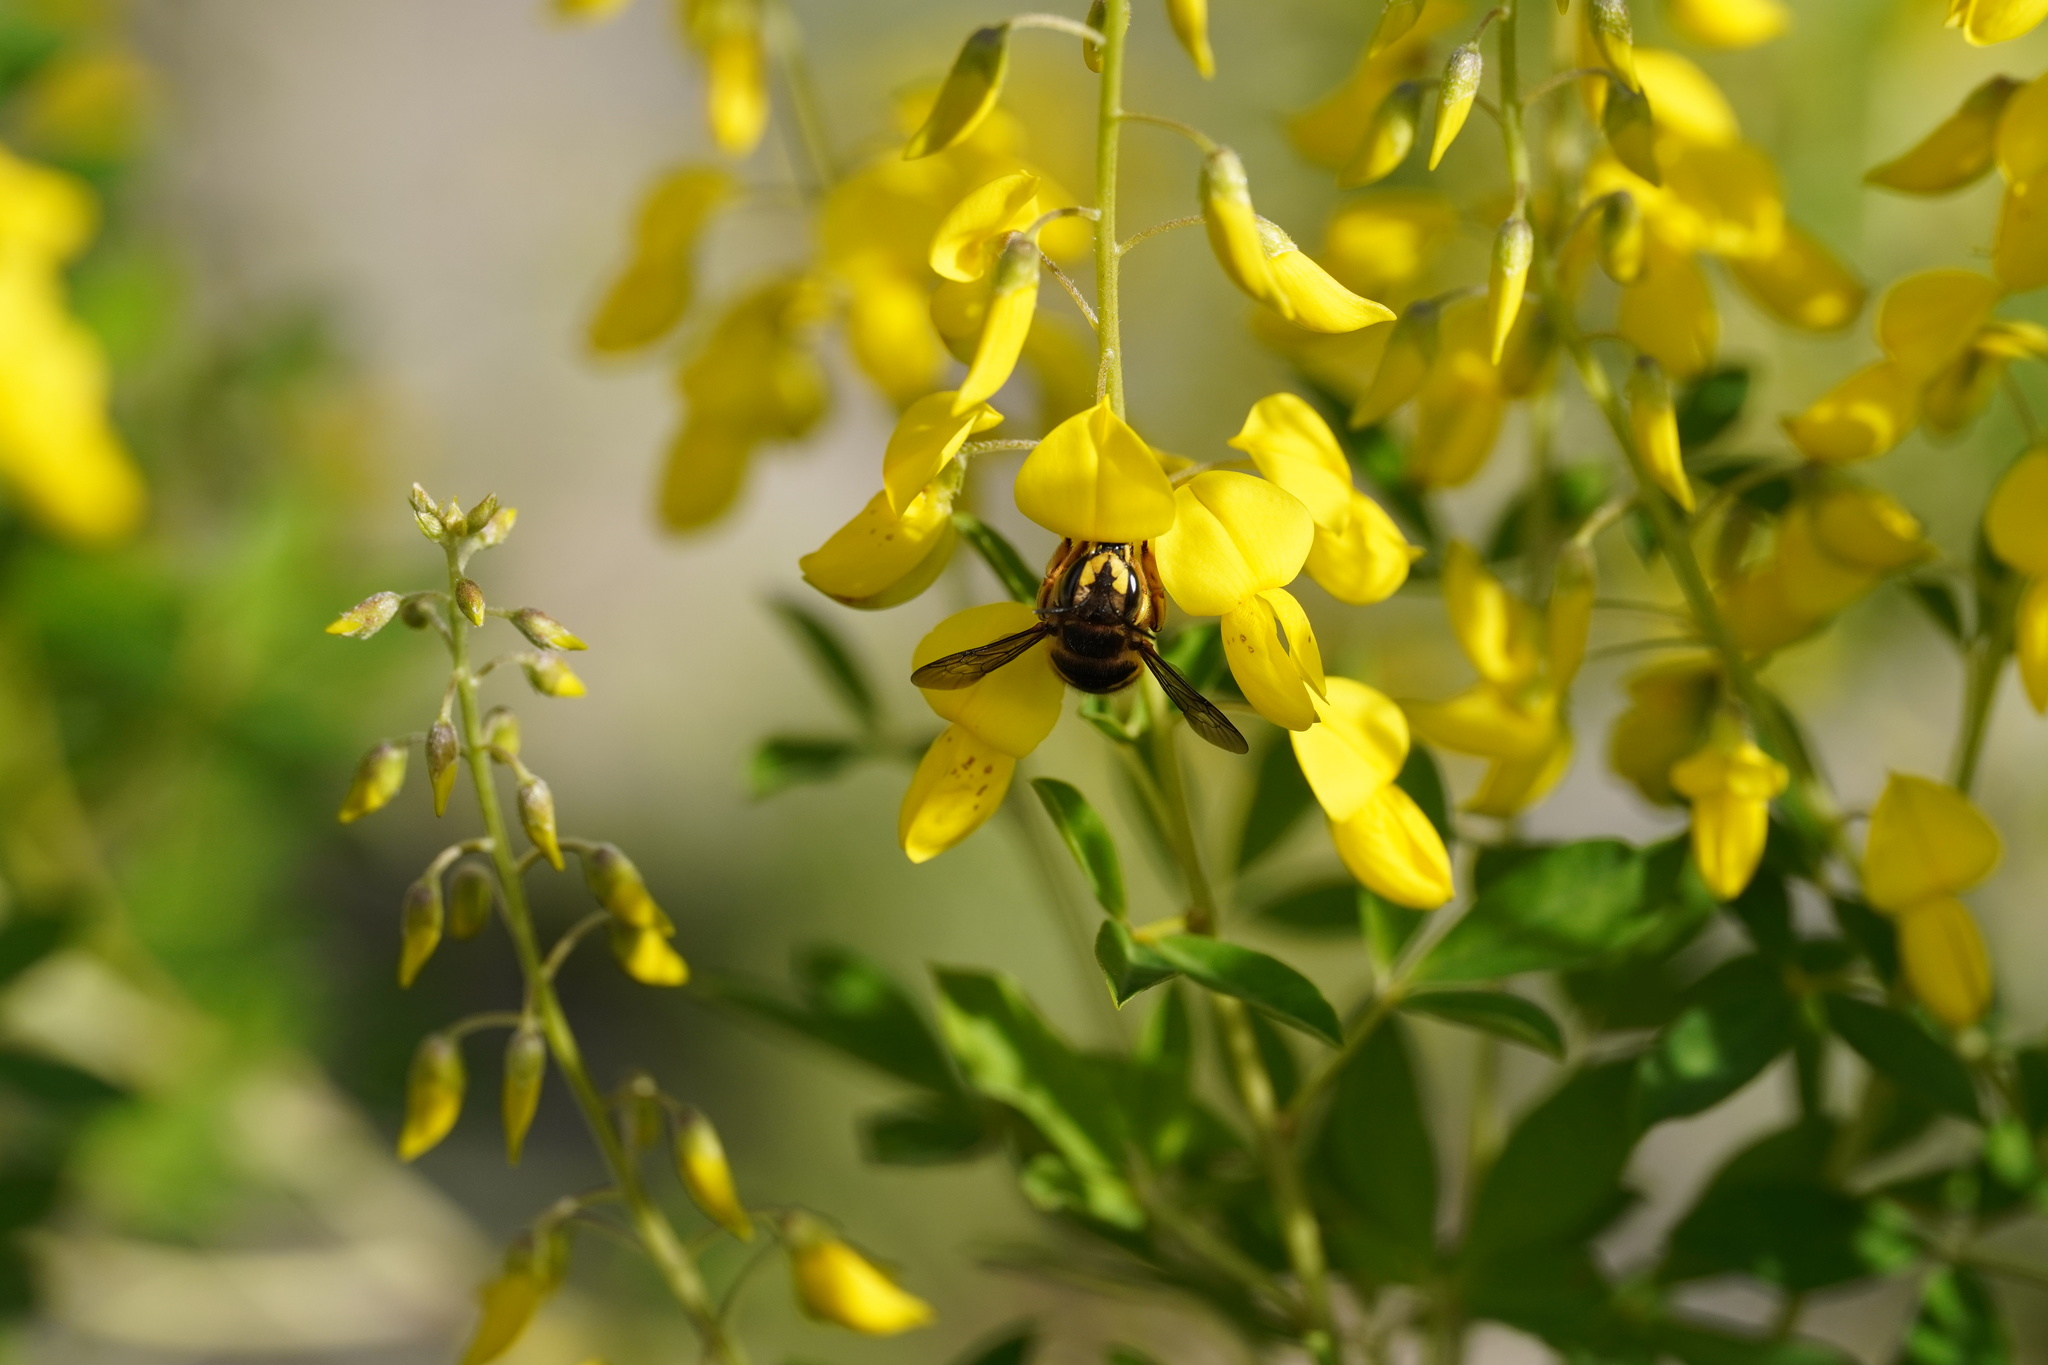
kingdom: Animalia
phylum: Arthropoda
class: Insecta
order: Hymenoptera
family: Megachilidae
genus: Anthidium
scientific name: Anthidium manicatum
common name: Wool carder bee
